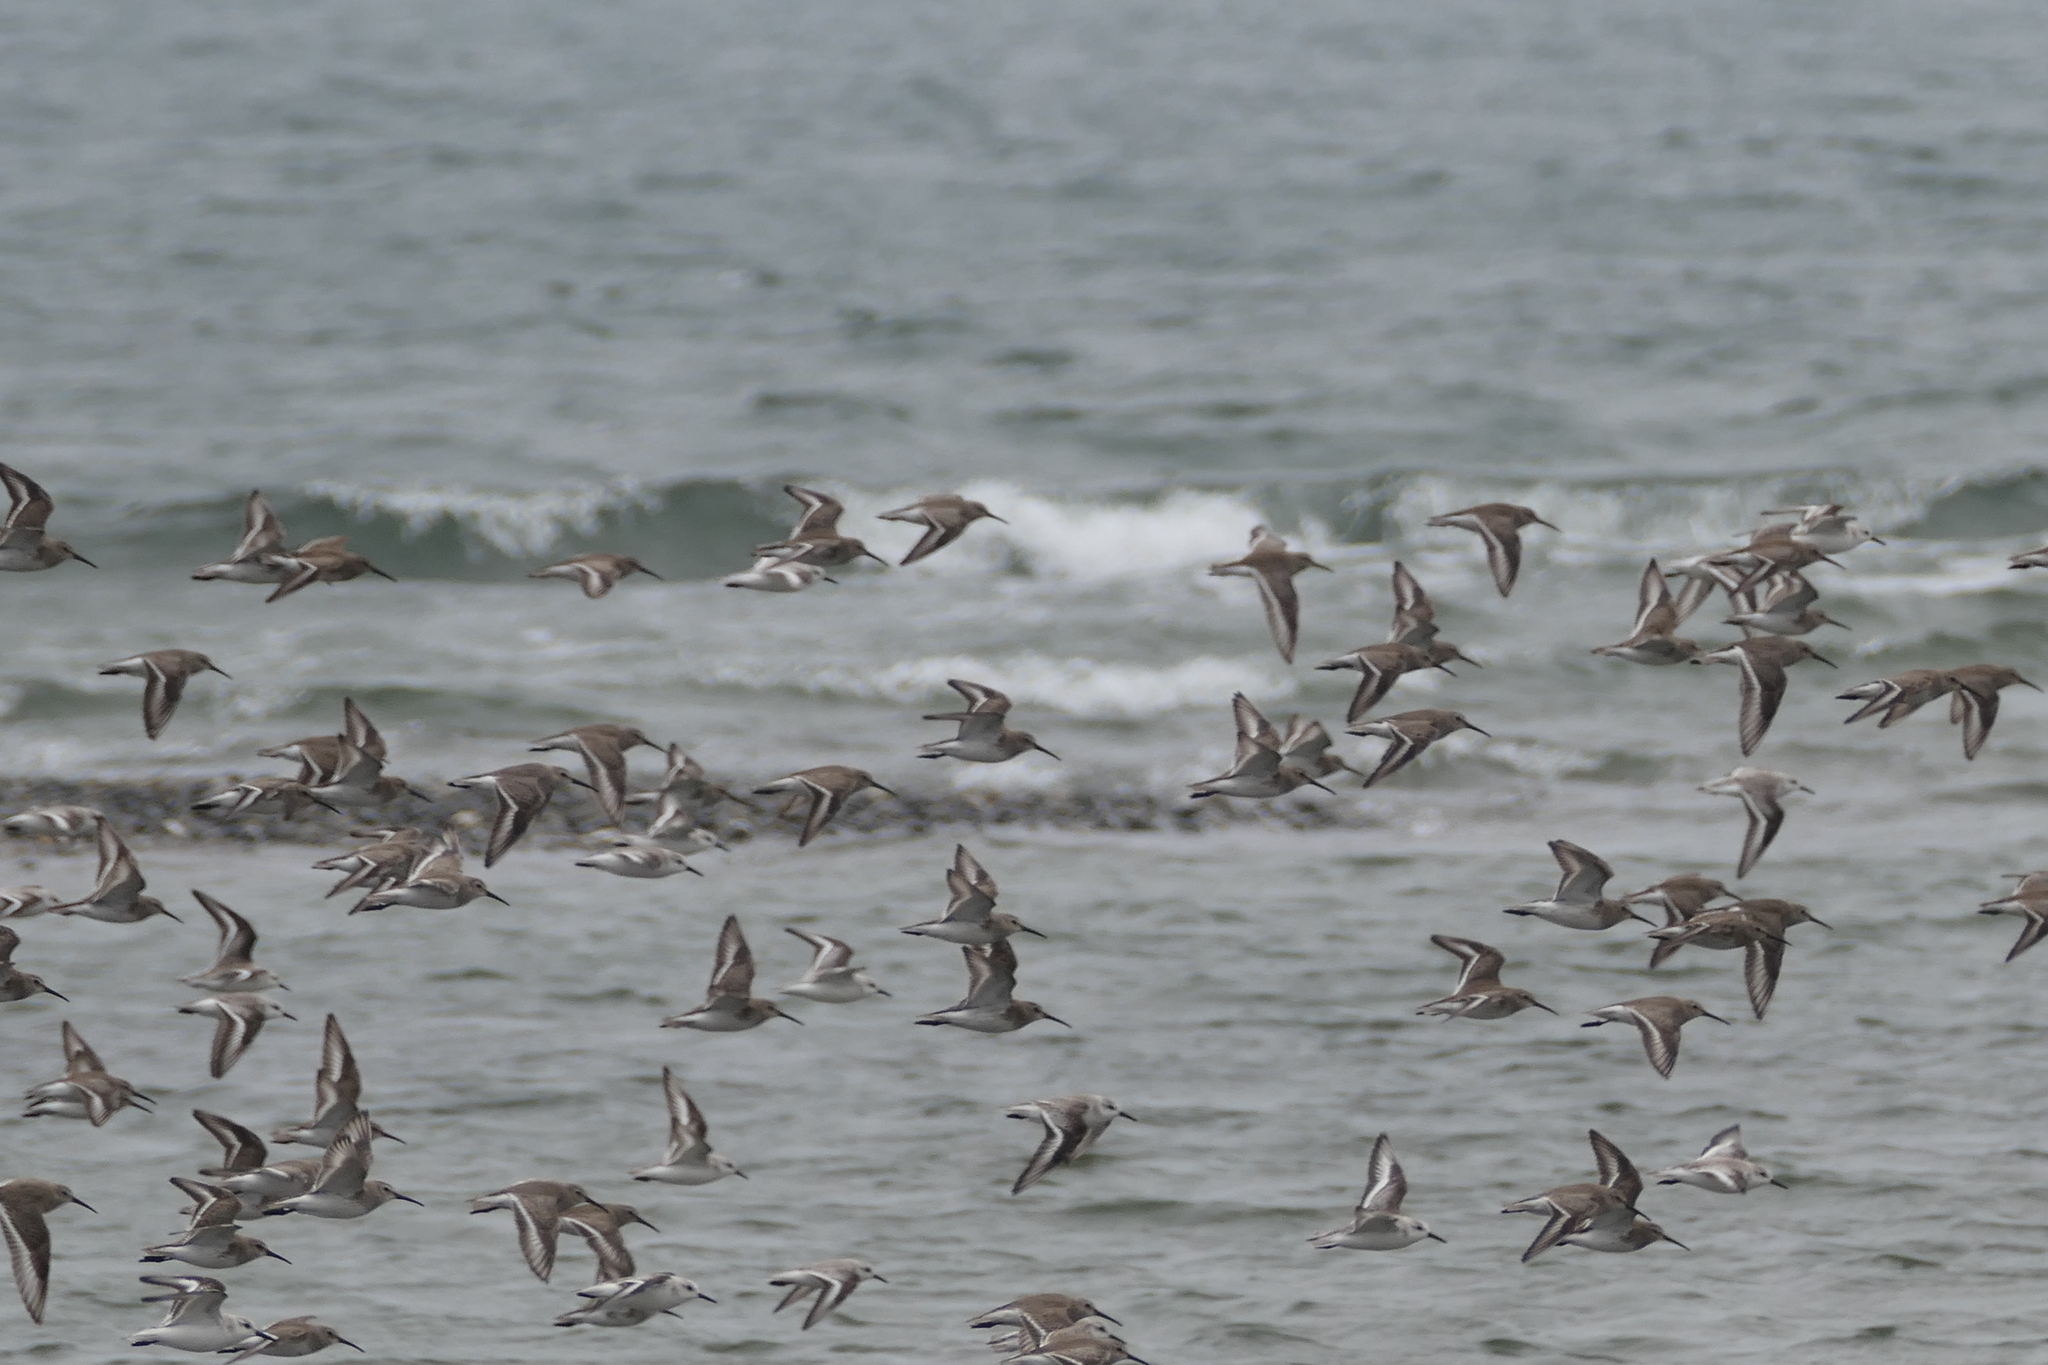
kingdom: Animalia
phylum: Chordata
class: Aves
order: Charadriiformes
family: Scolopacidae
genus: Calidris
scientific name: Calidris alpina
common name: Dunlin
